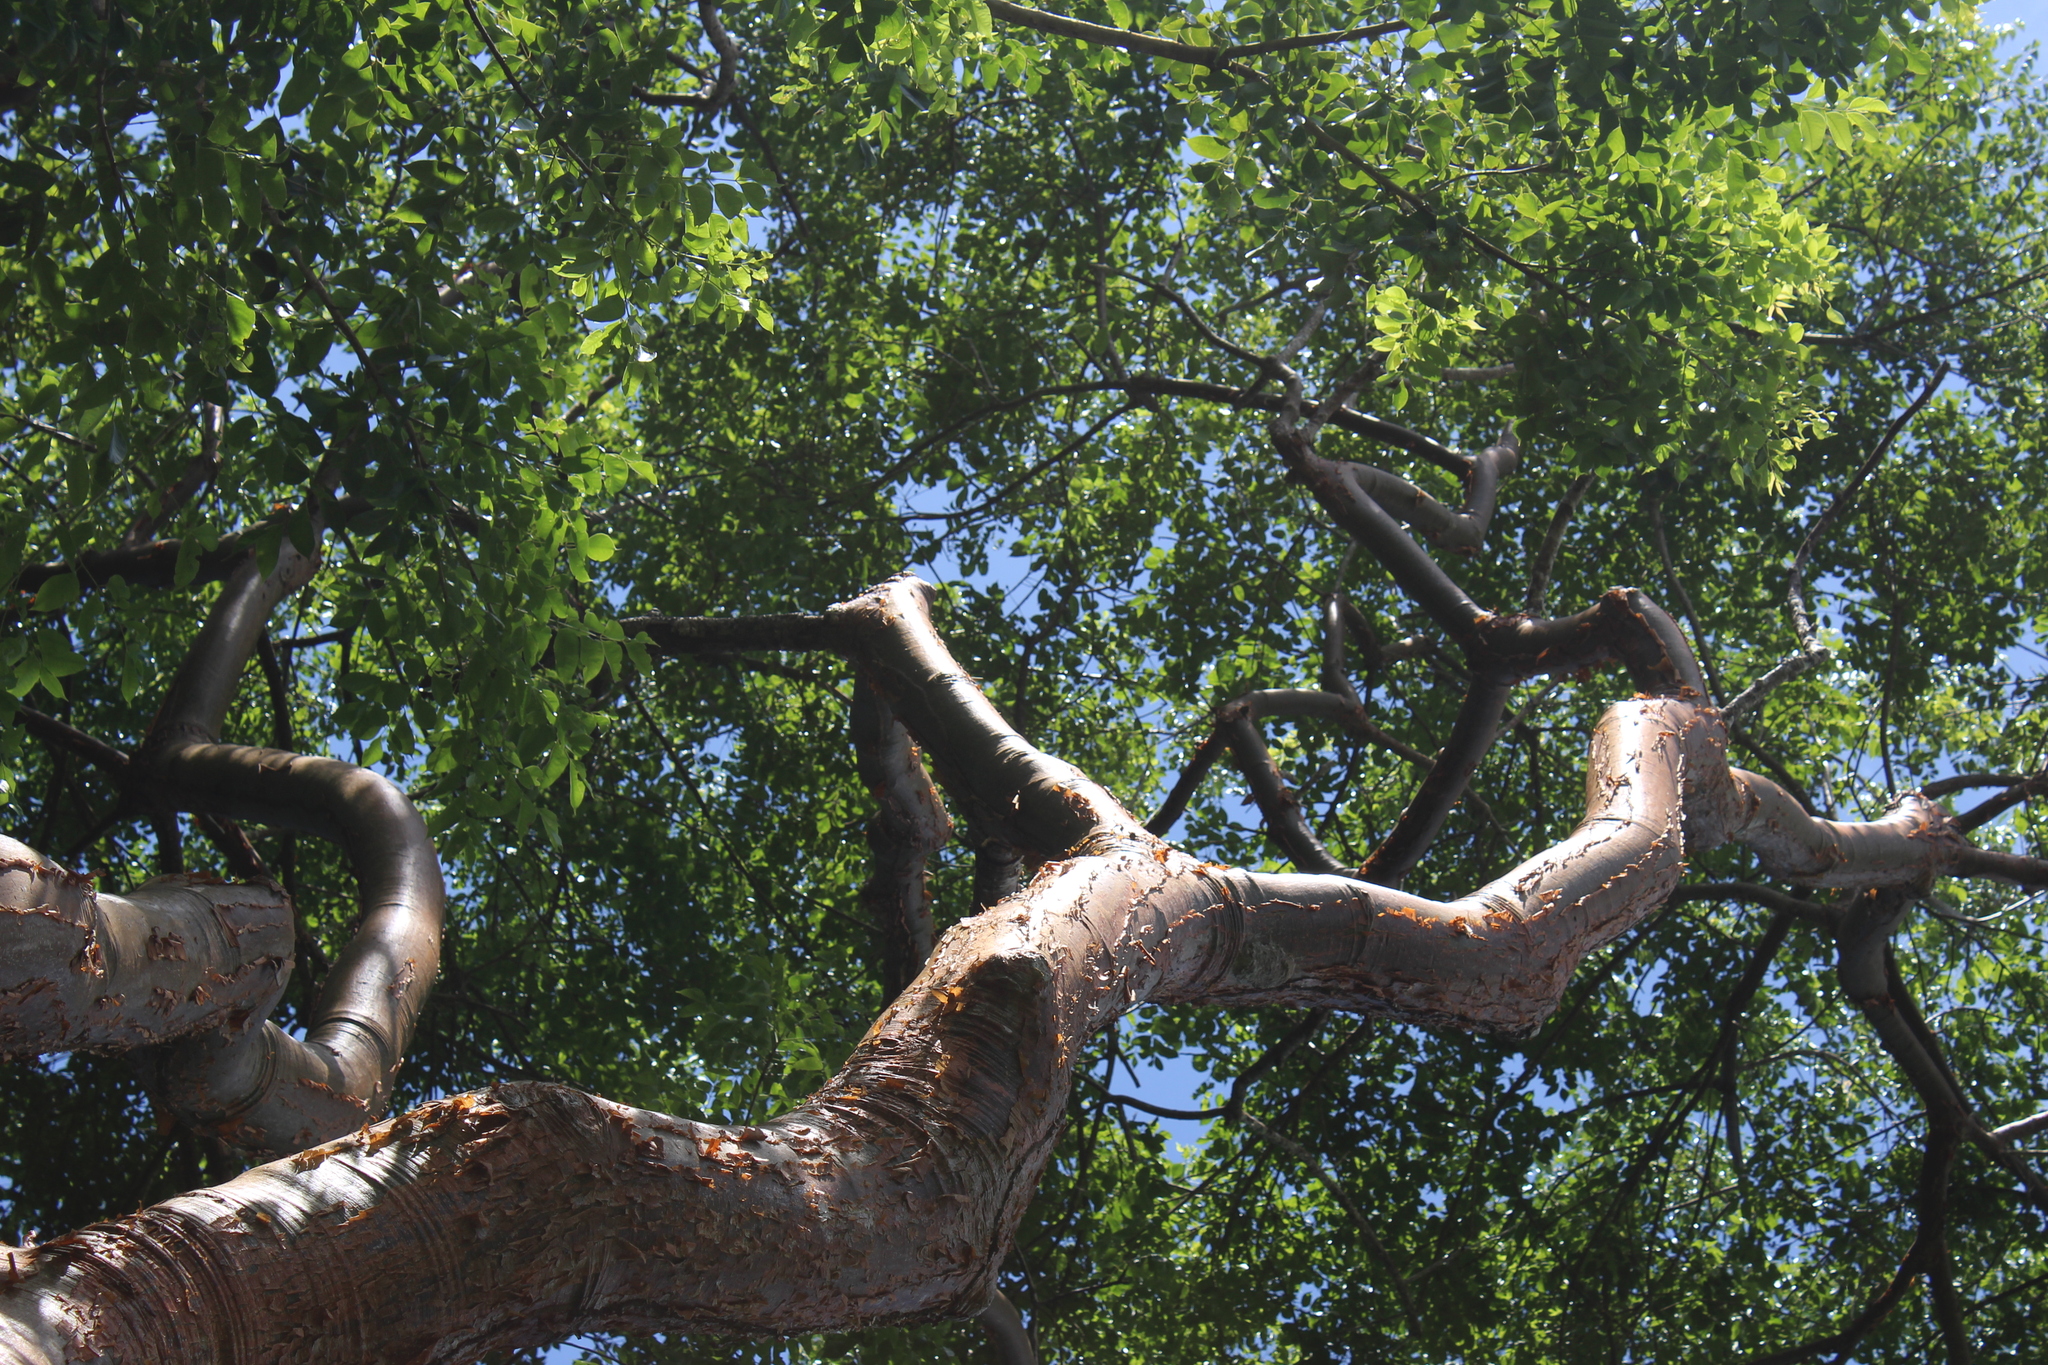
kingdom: Plantae
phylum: Tracheophyta
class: Magnoliopsida
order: Sapindales
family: Burseraceae
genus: Bursera
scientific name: Bursera simaruba
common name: Turpentine tree
